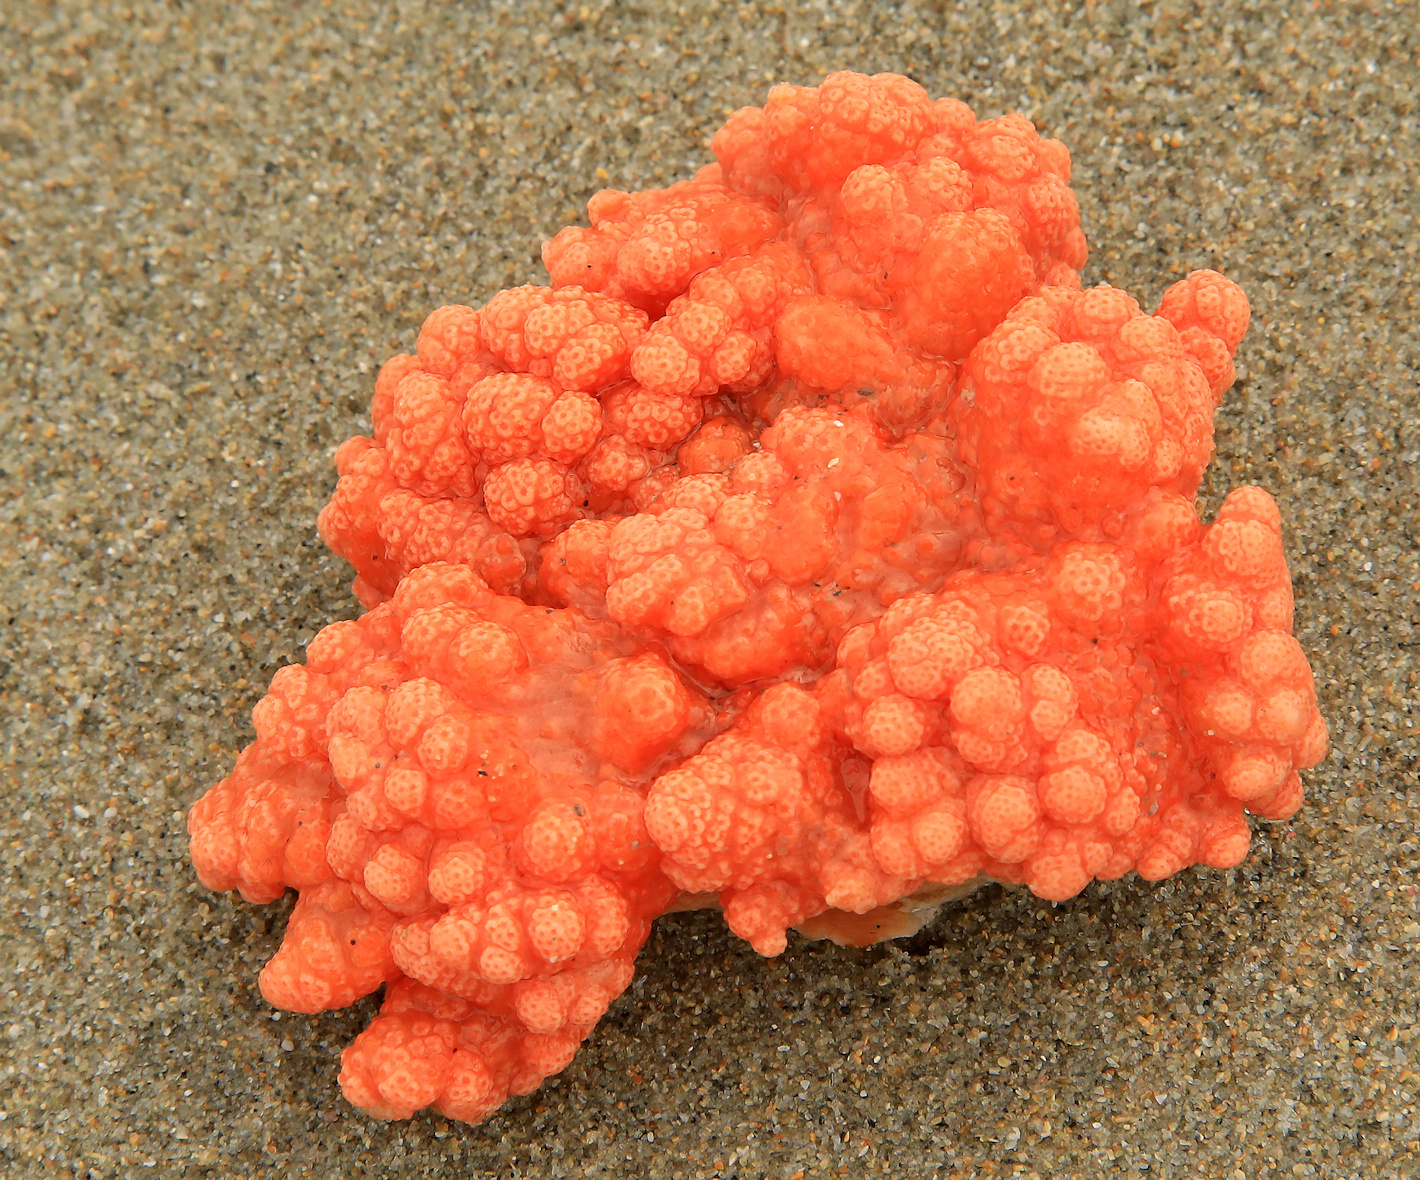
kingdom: Animalia
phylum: Cnidaria
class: Anthozoa
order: Scleralcyonacea
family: Parasphaerascleridae
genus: Parasphaerasclera
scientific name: Parasphaerasclera valdiviae
